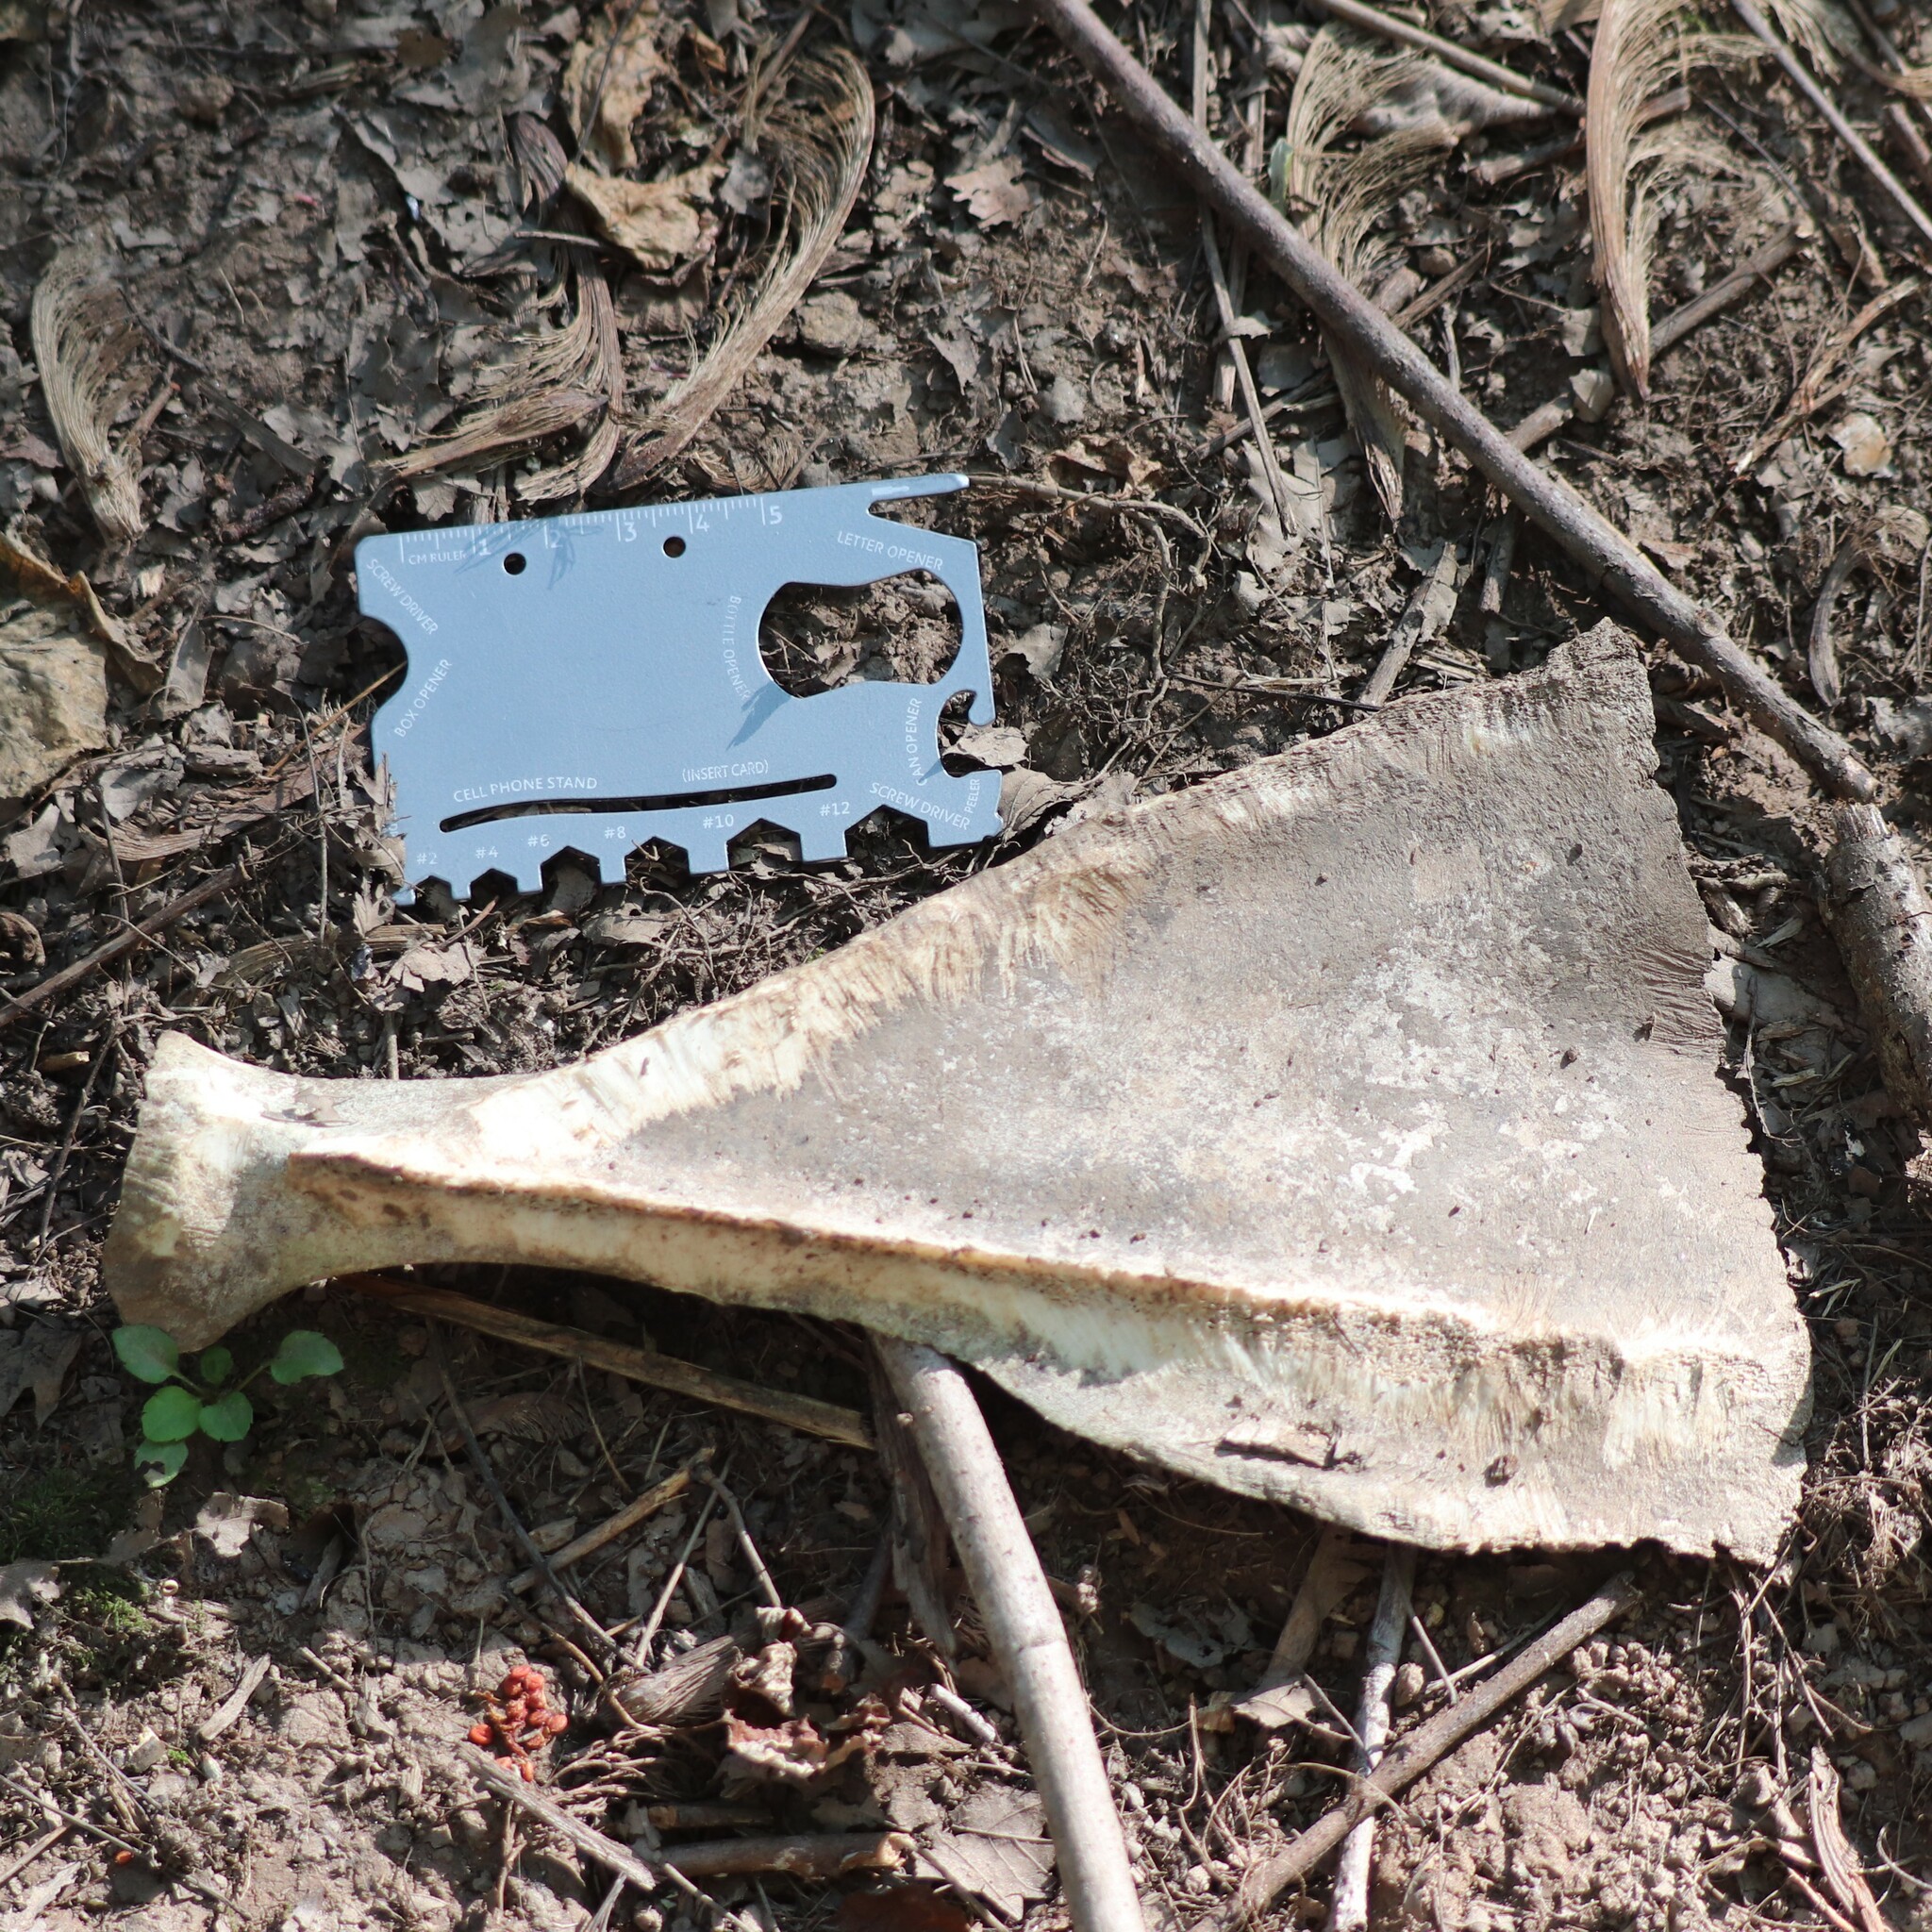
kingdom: Animalia
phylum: Chordata
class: Mammalia
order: Artiodactyla
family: Cervidae
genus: Odocoileus
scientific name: Odocoileus virginianus
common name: White-tailed deer
